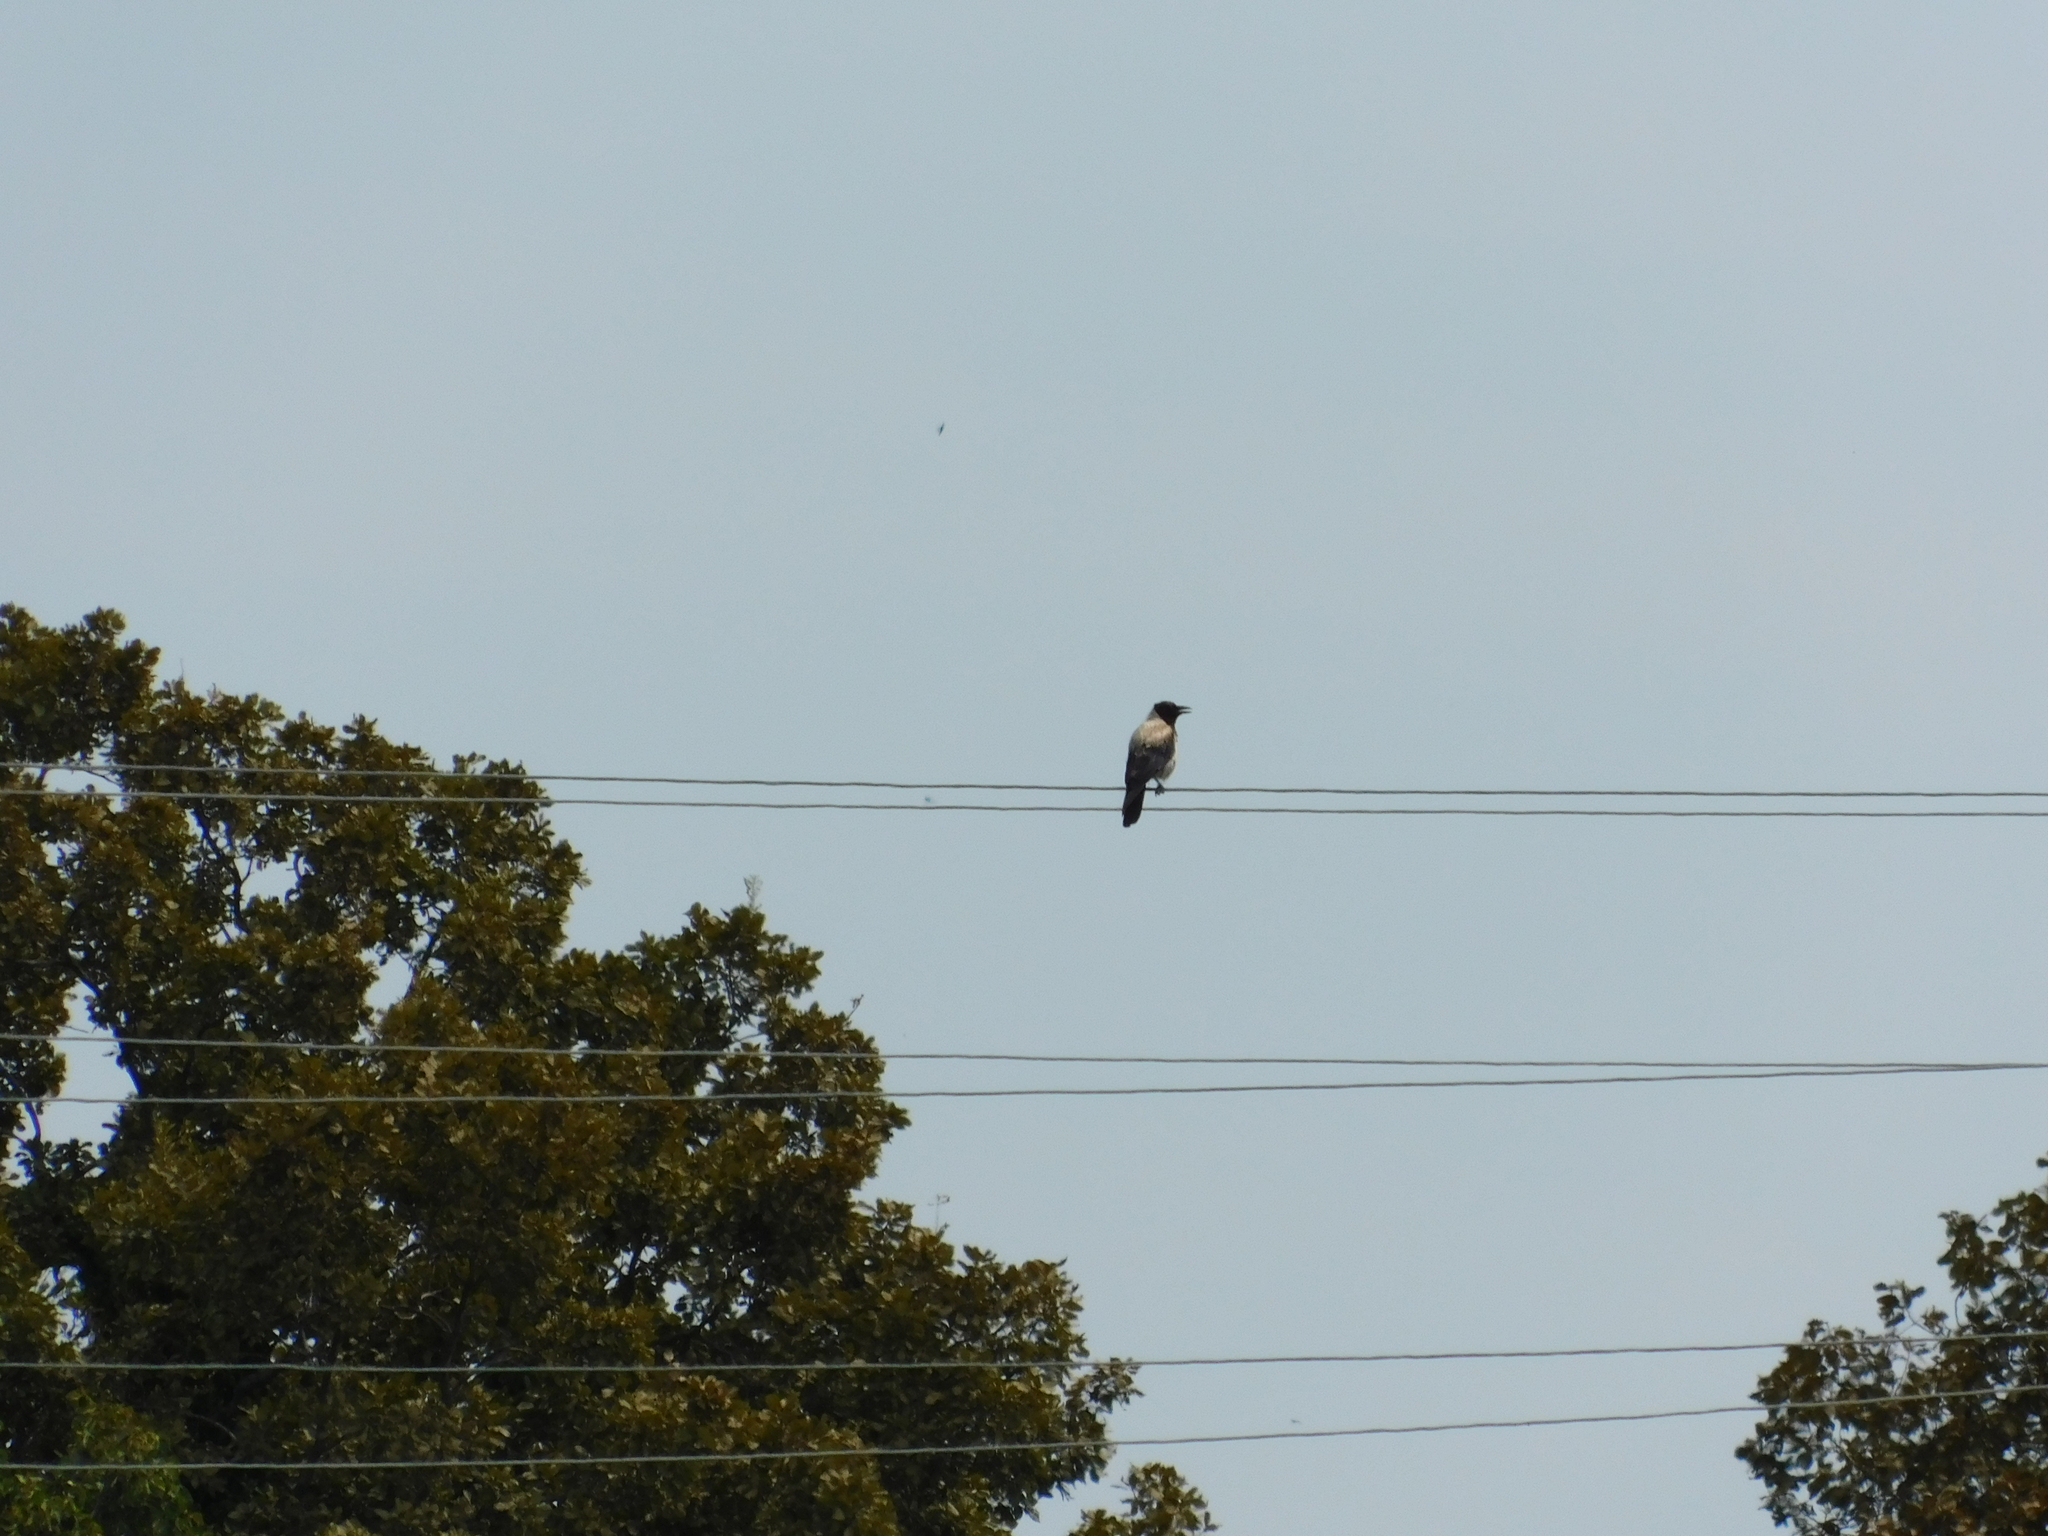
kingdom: Animalia
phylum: Chordata
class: Aves
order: Passeriformes
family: Corvidae
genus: Corvus
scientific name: Corvus cornix
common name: Hooded crow
